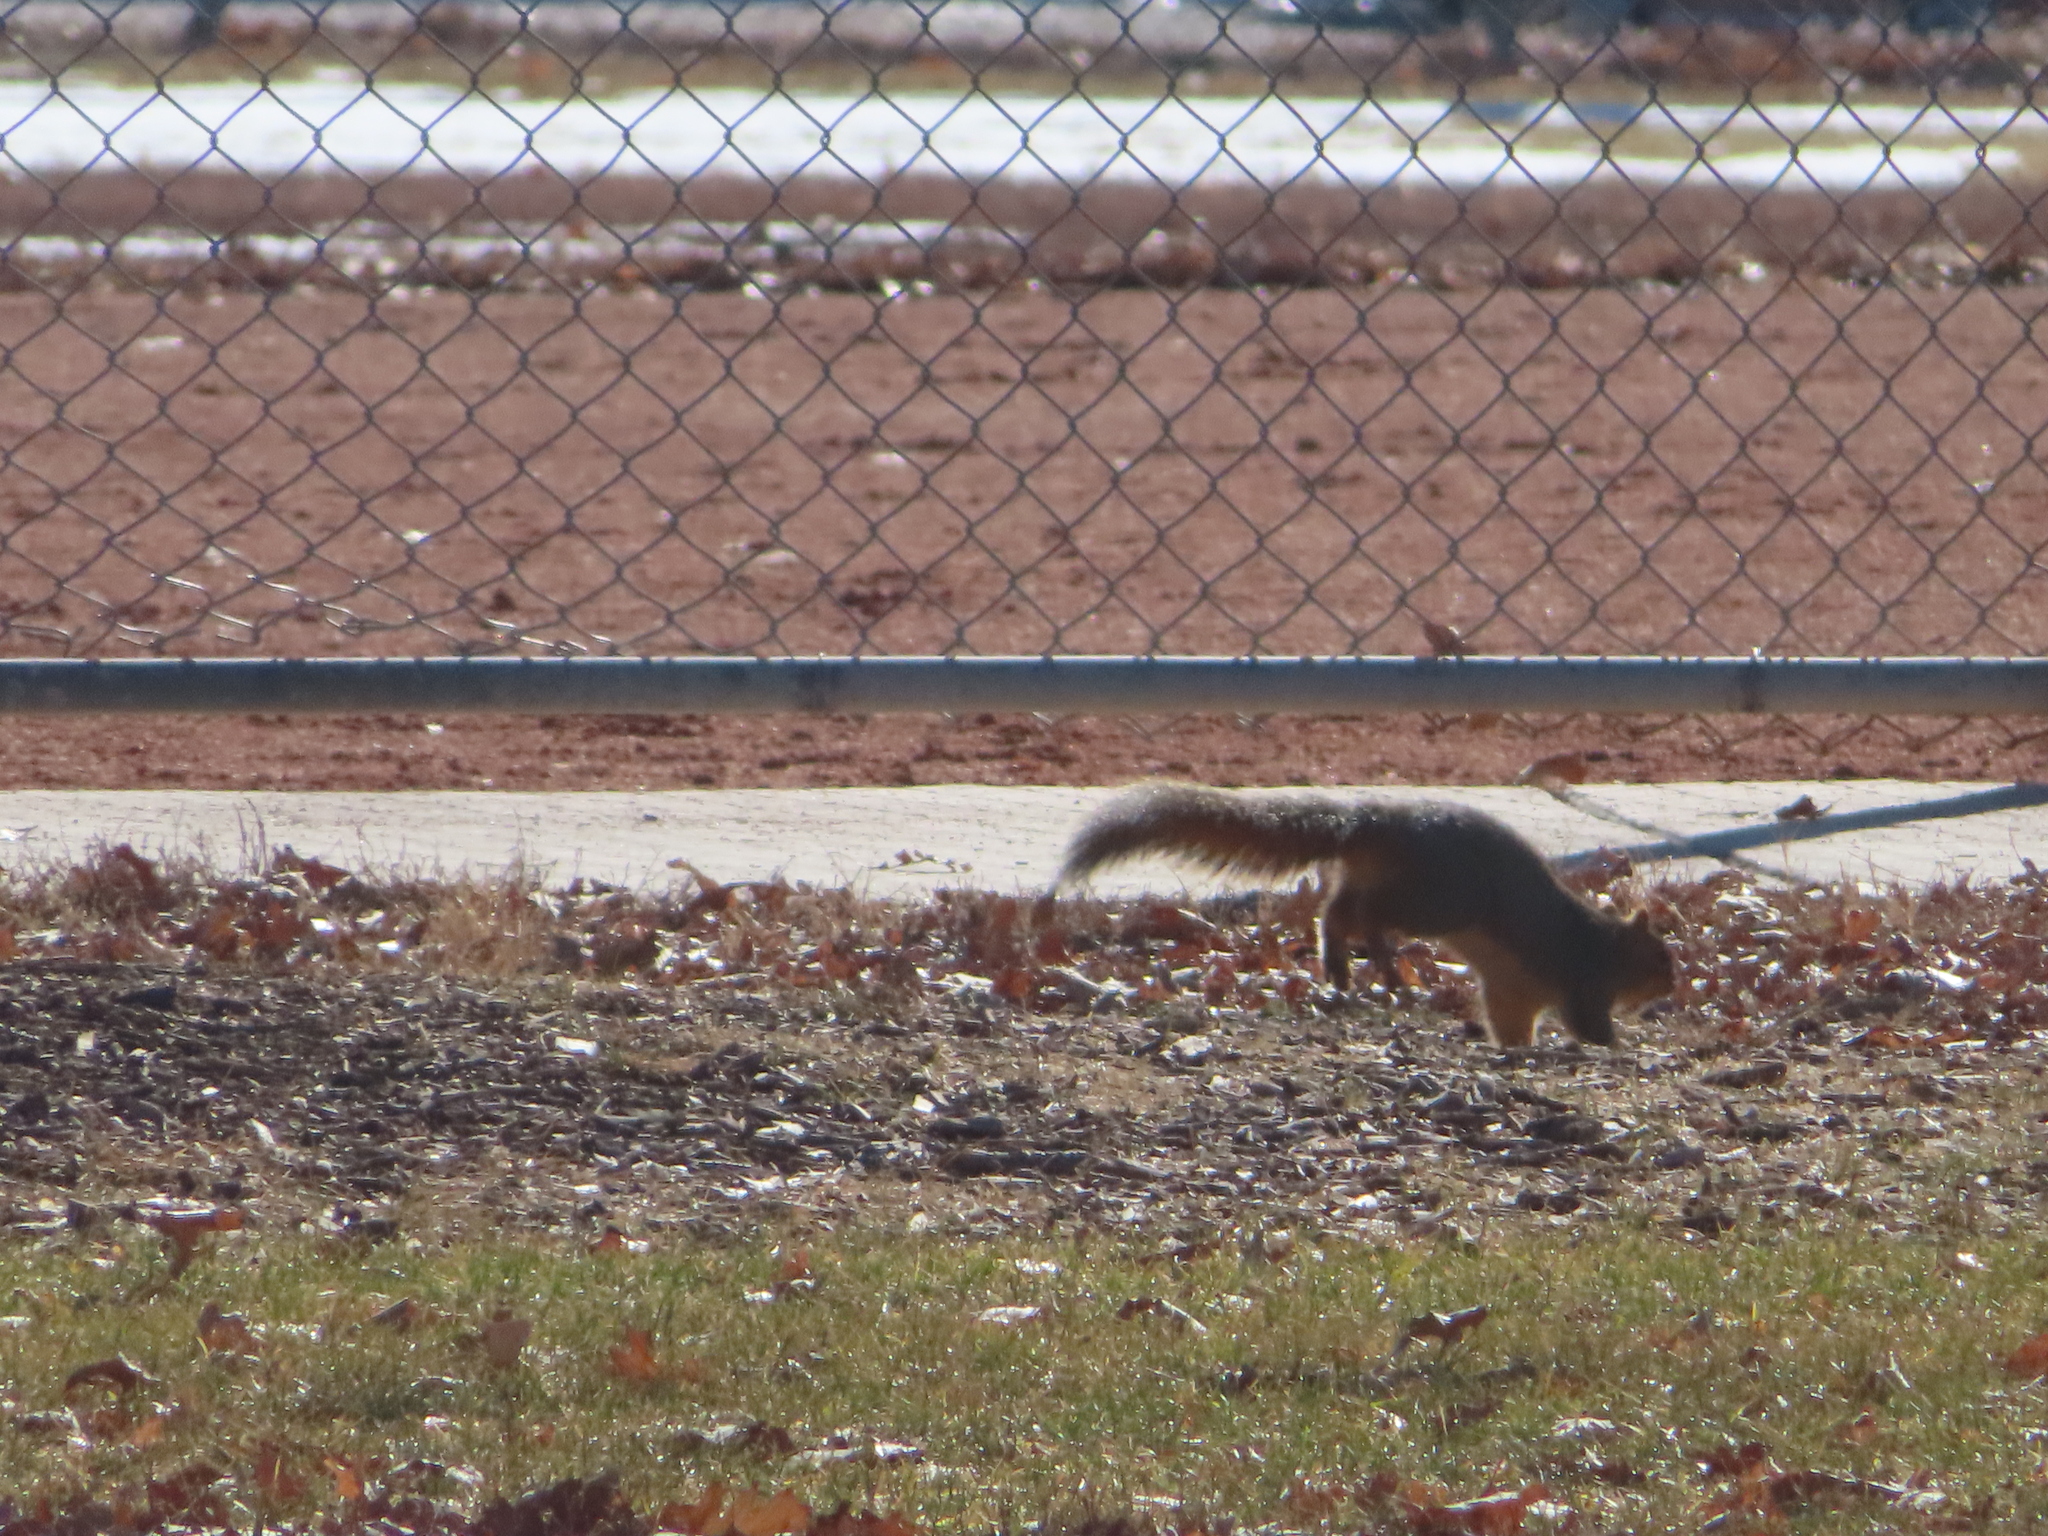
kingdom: Animalia
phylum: Chordata
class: Mammalia
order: Rodentia
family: Sciuridae
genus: Sciurus
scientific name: Sciurus niger
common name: Fox squirrel
